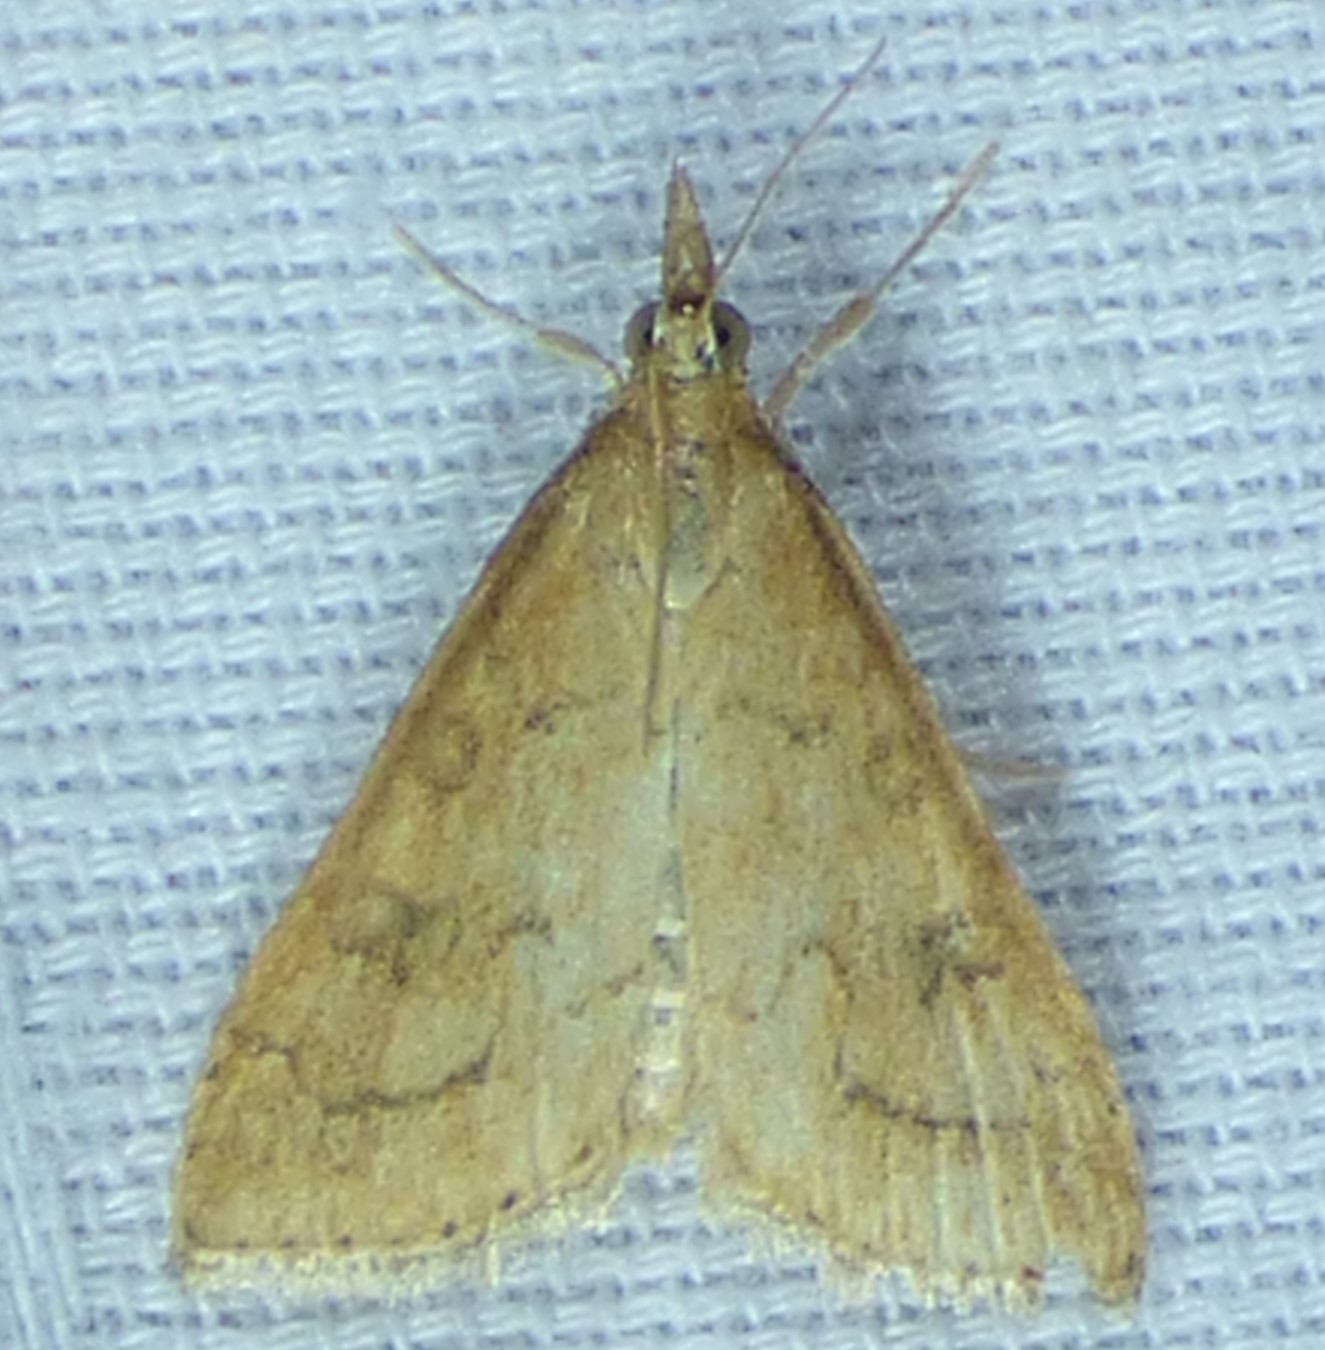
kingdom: Animalia
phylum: Arthropoda
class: Insecta
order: Lepidoptera
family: Crambidae
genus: Udea
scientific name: Udea rubigalis
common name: Celery leaftier moth
